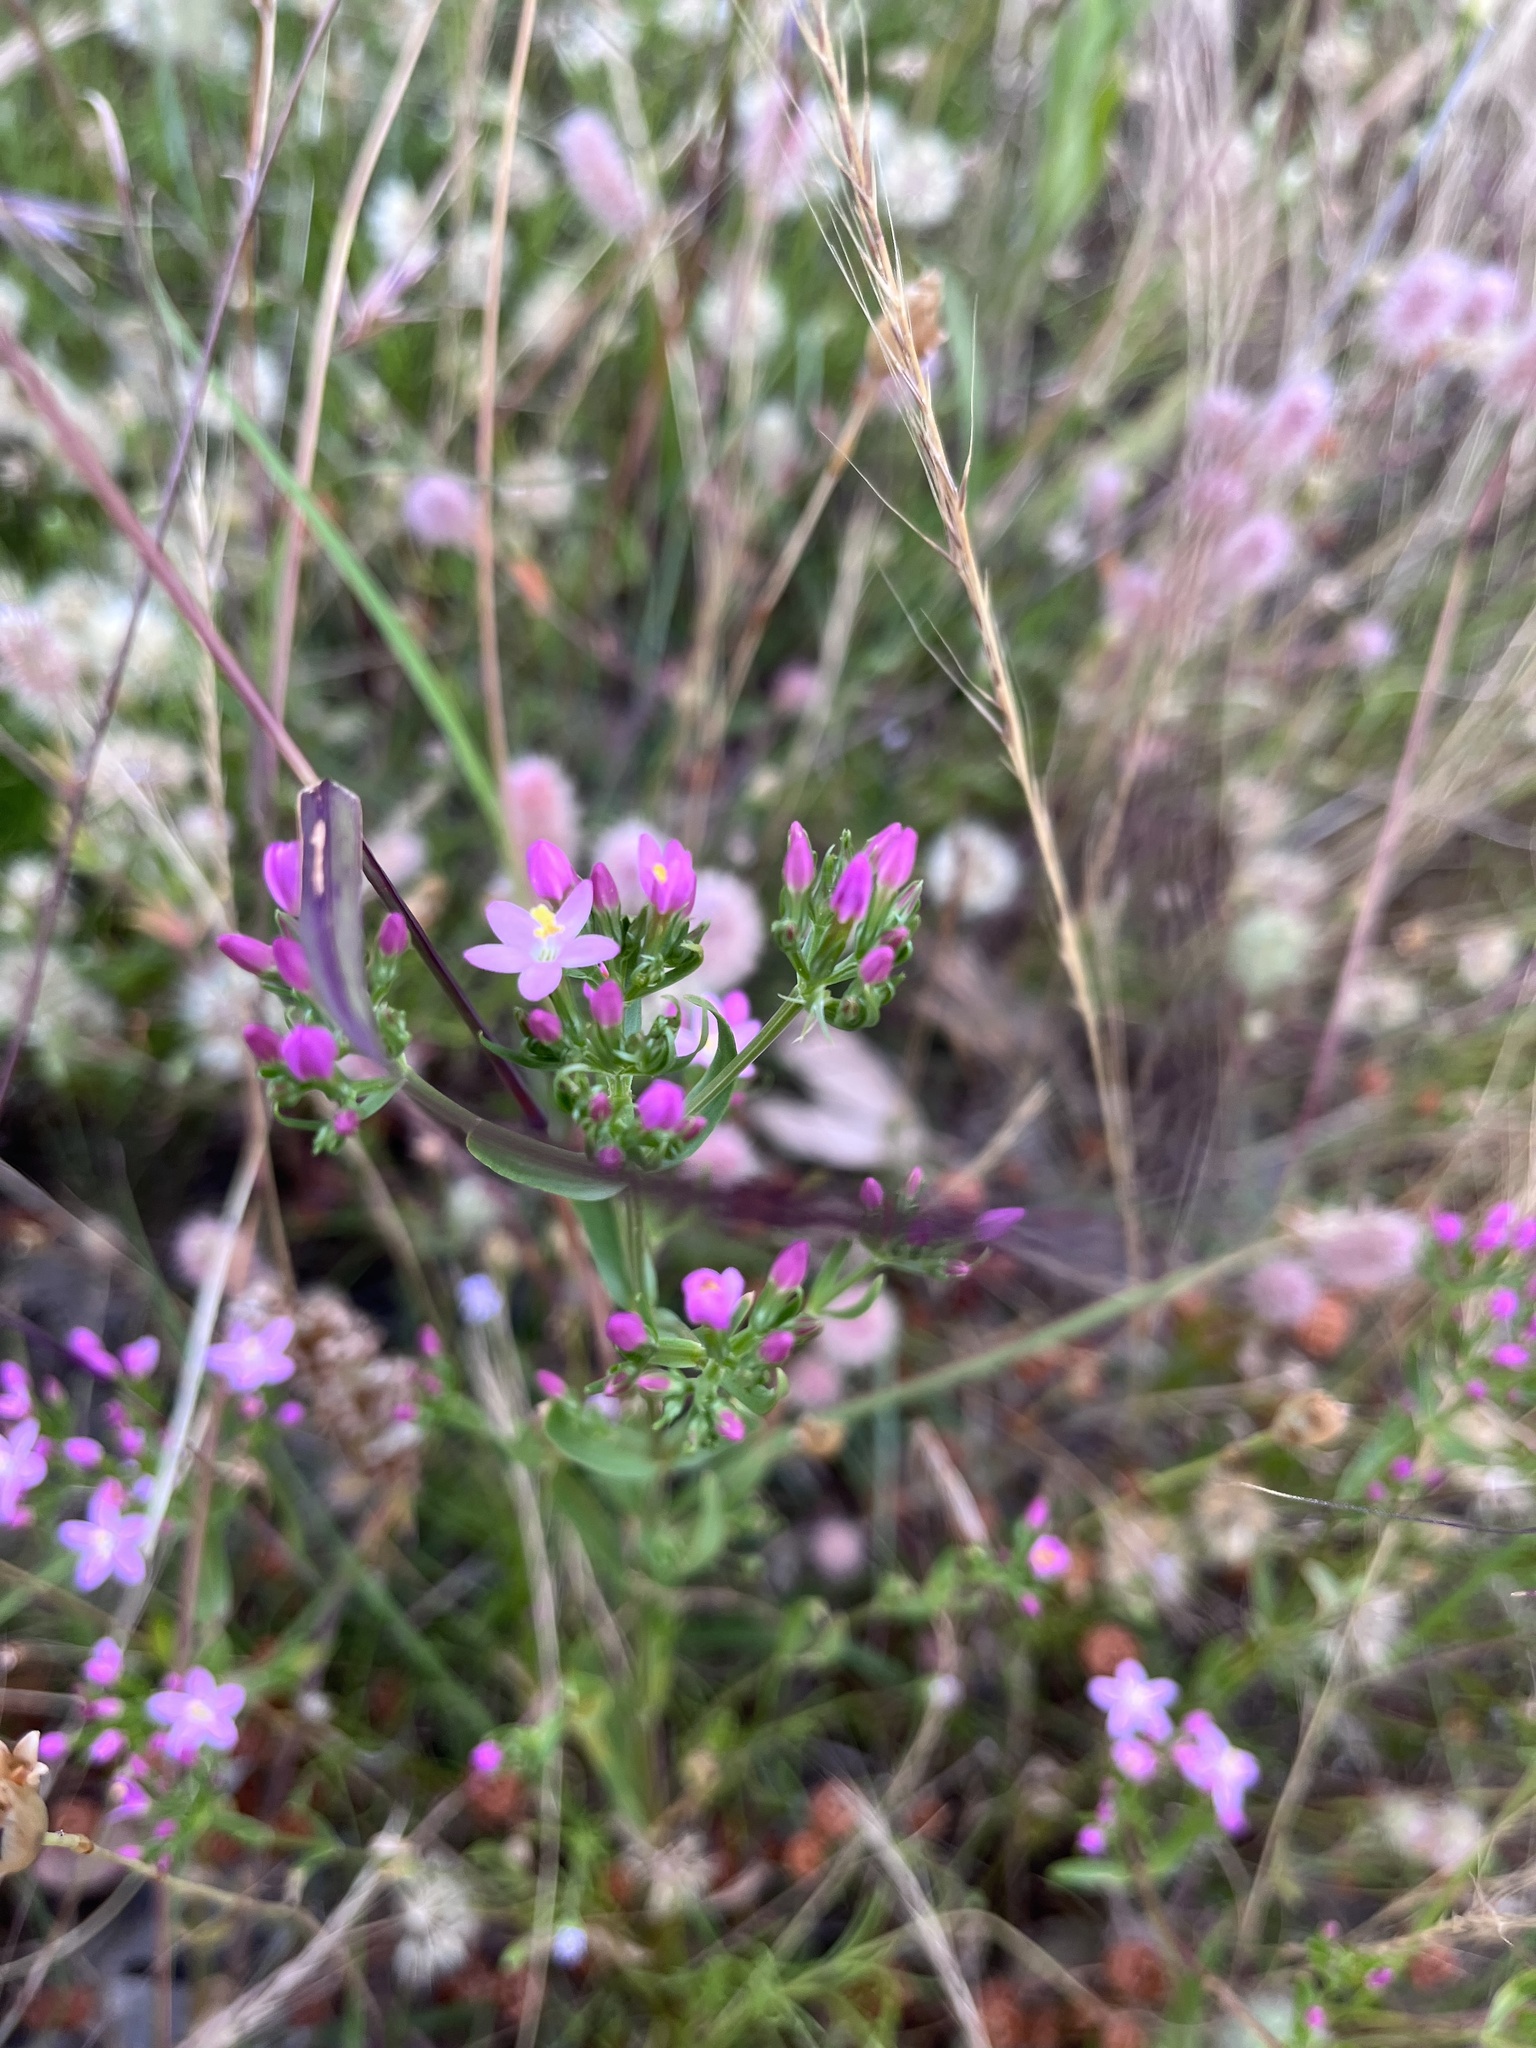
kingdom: Plantae
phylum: Tracheophyta
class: Magnoliopsida
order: Gentianales
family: Gentianaceae
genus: Centaurium
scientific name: Centaurium
